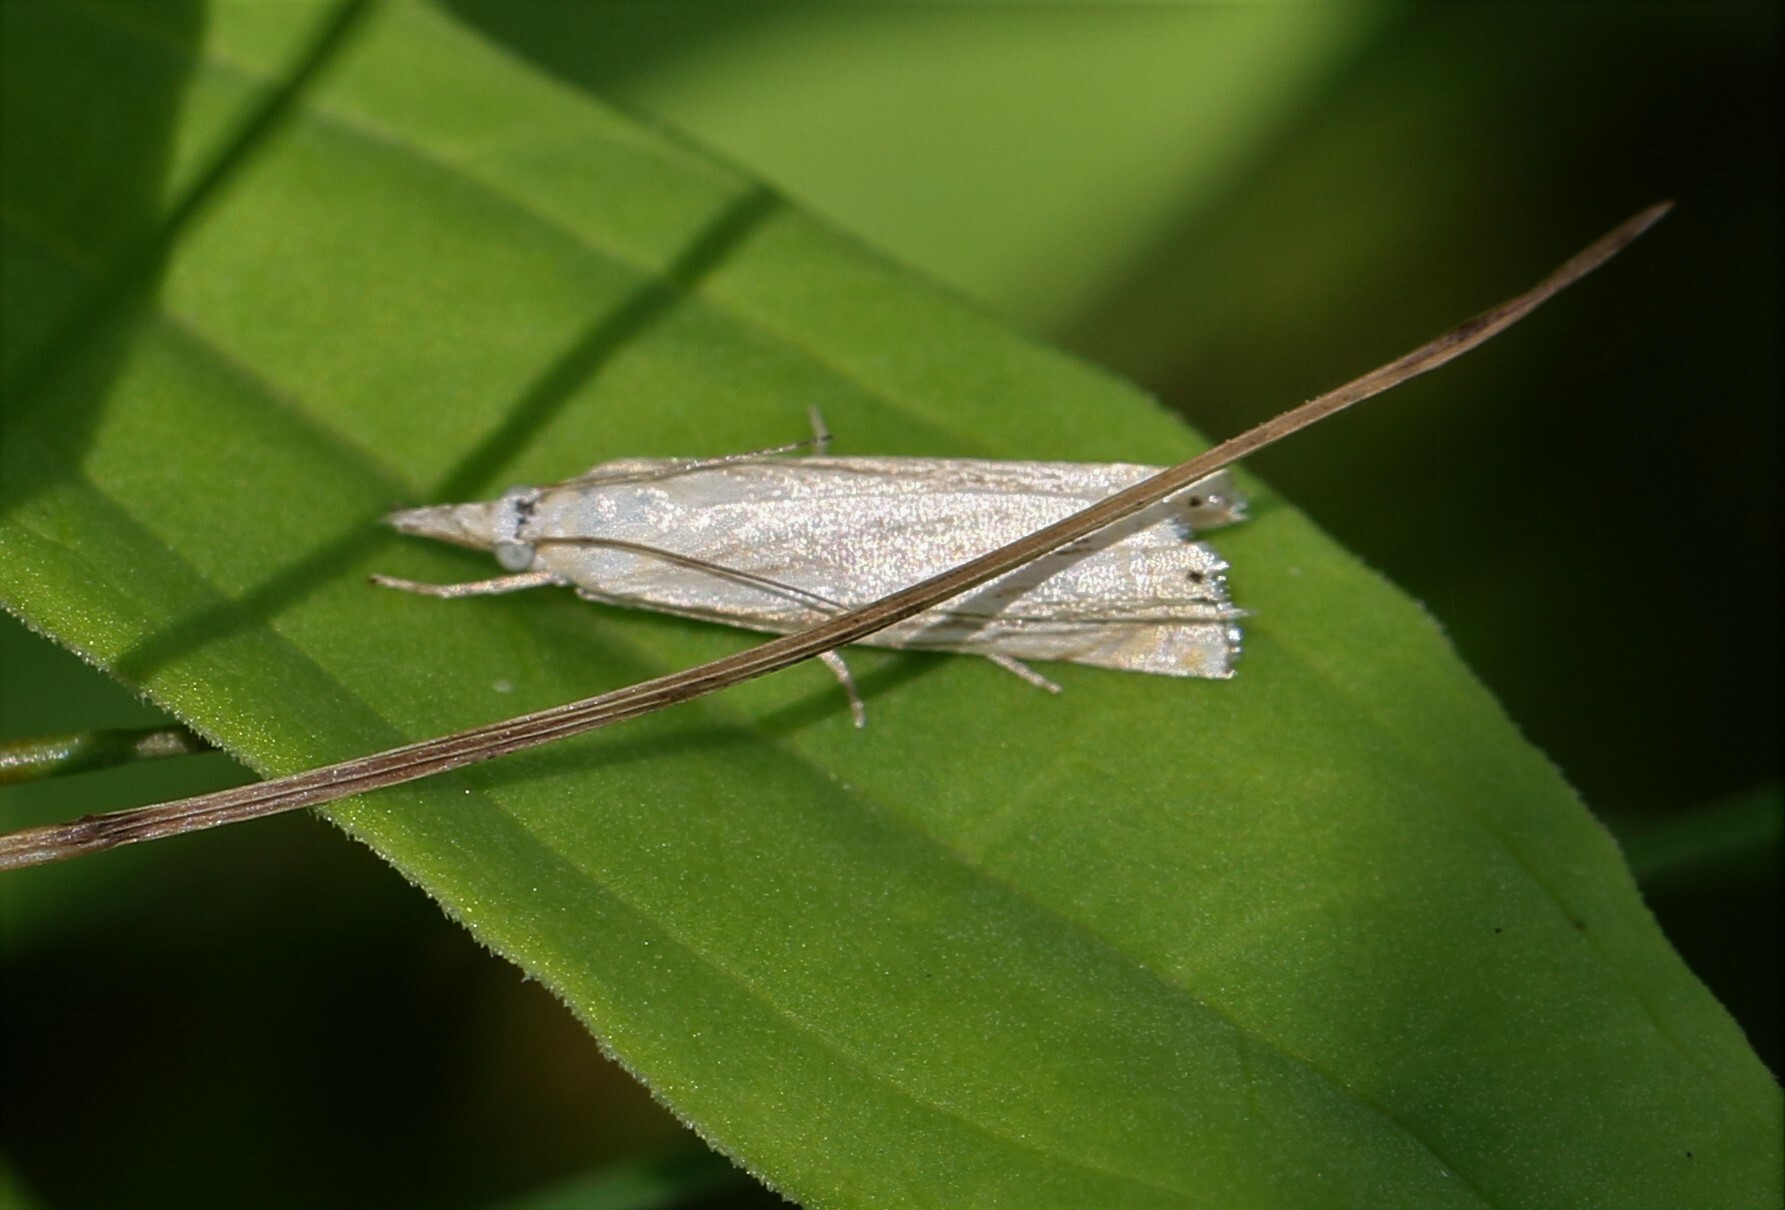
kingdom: Animalia
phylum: Arthropoda
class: Insecta
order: Lepidoptera
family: Crambidae
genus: Crambus
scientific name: Crambus albellus
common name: Small white grass-veneer
